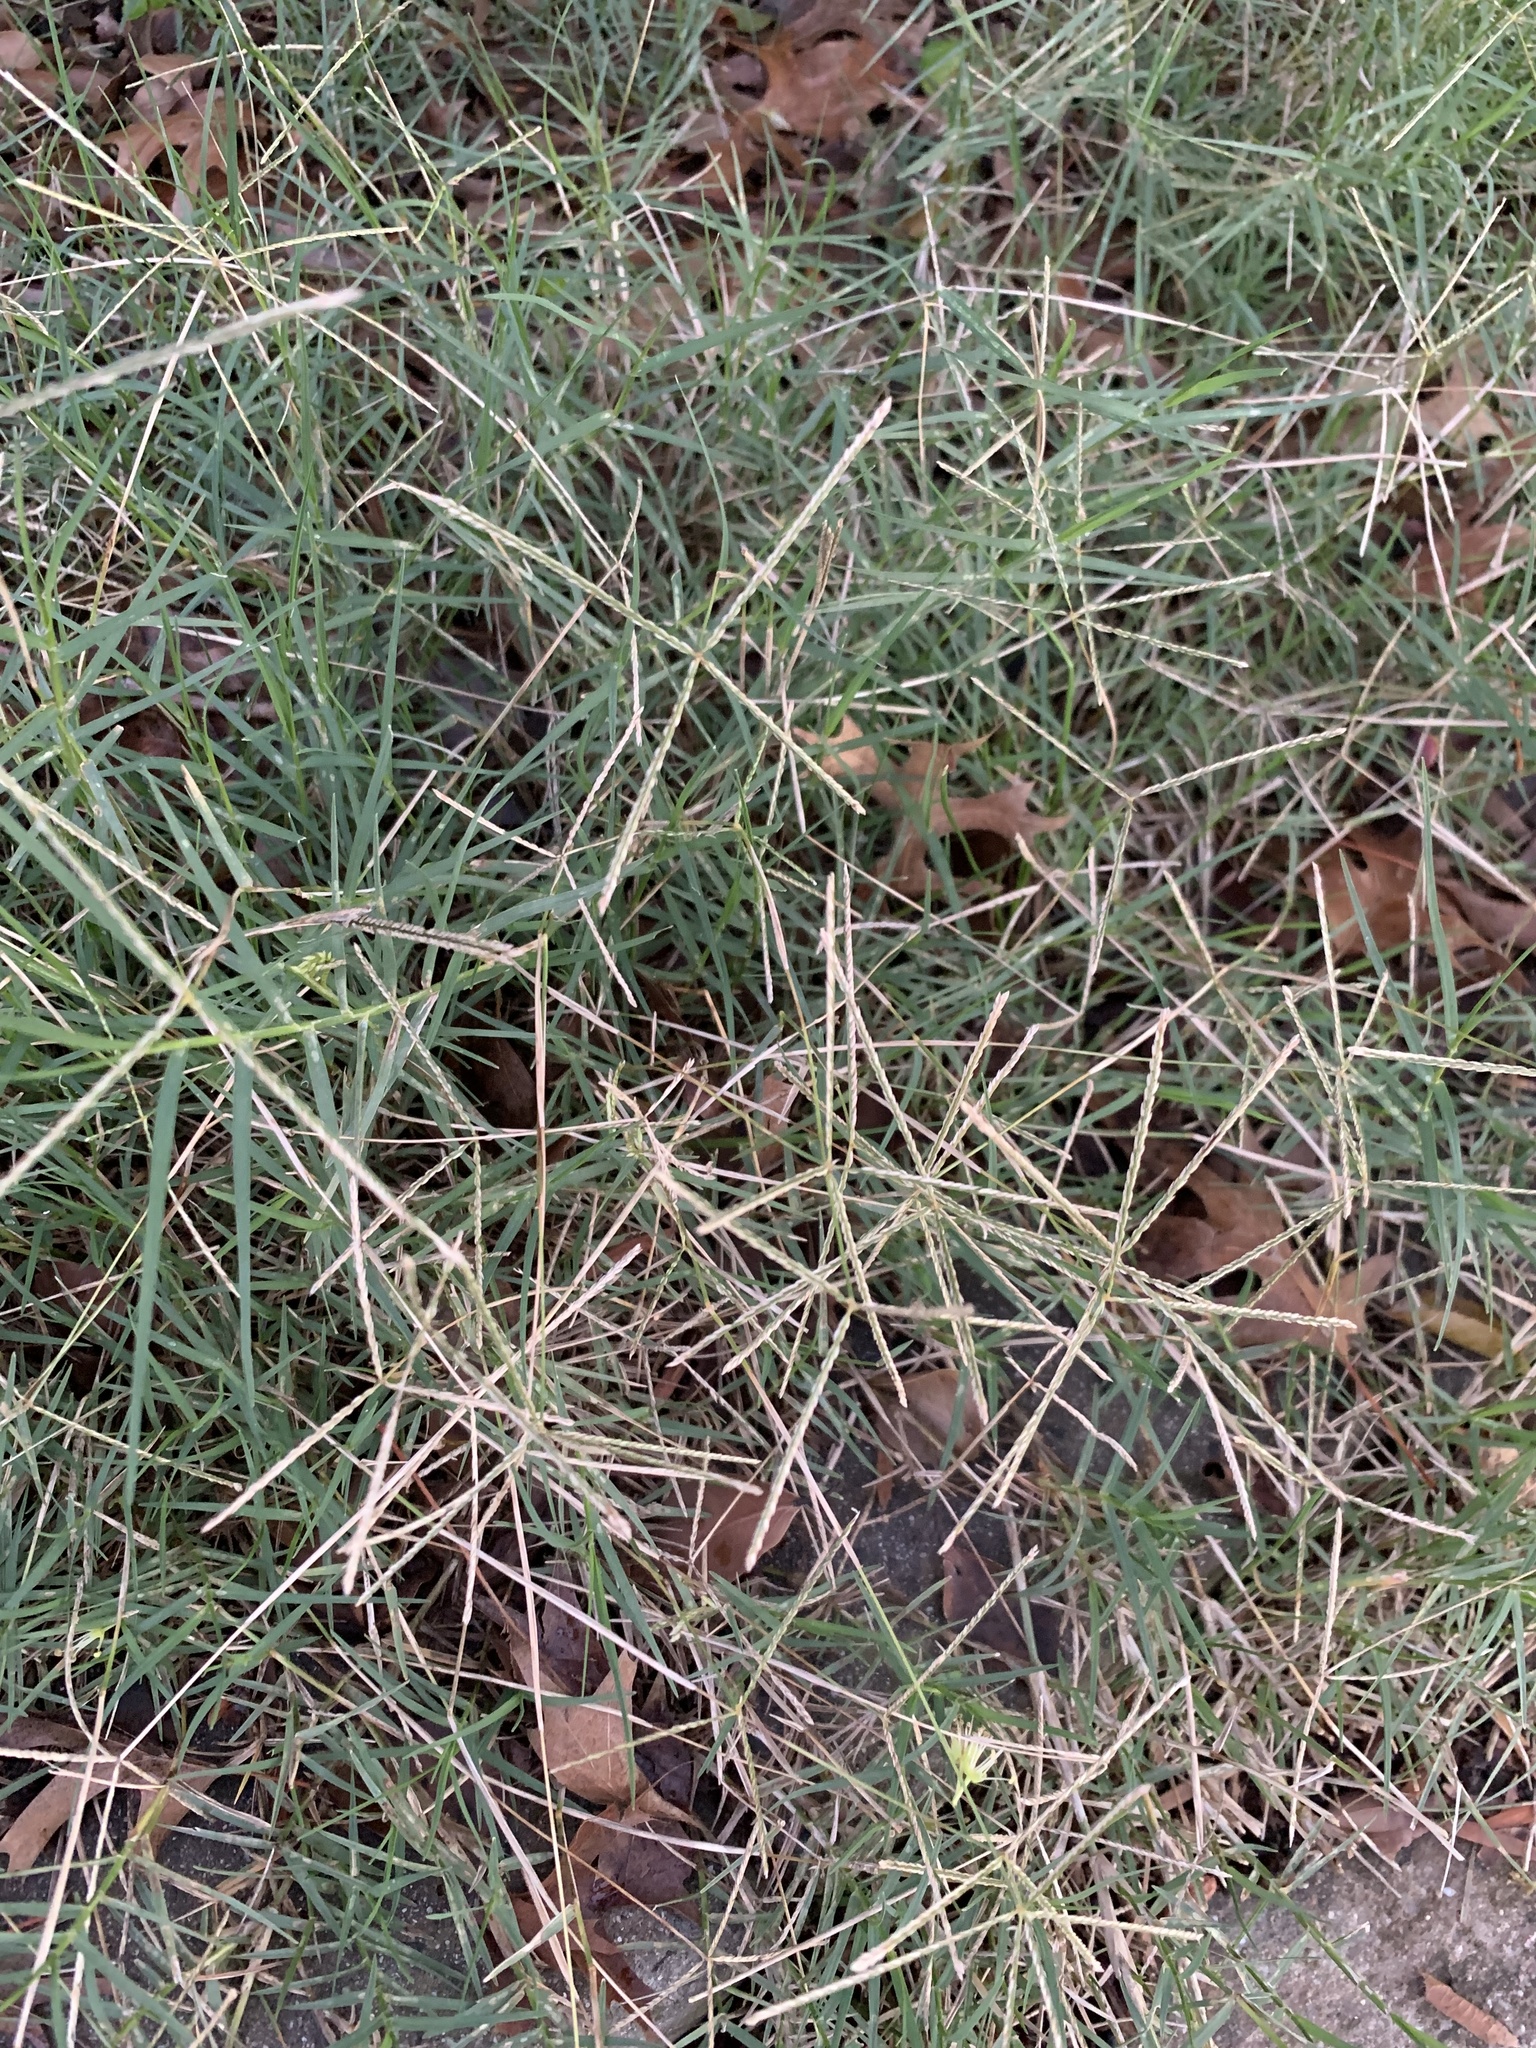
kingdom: Plantae
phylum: Tracheophyta
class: Liliopsida
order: Poales
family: Poaceae
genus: Cynodon
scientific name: Cynodon dactylon
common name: Bermuda grass
